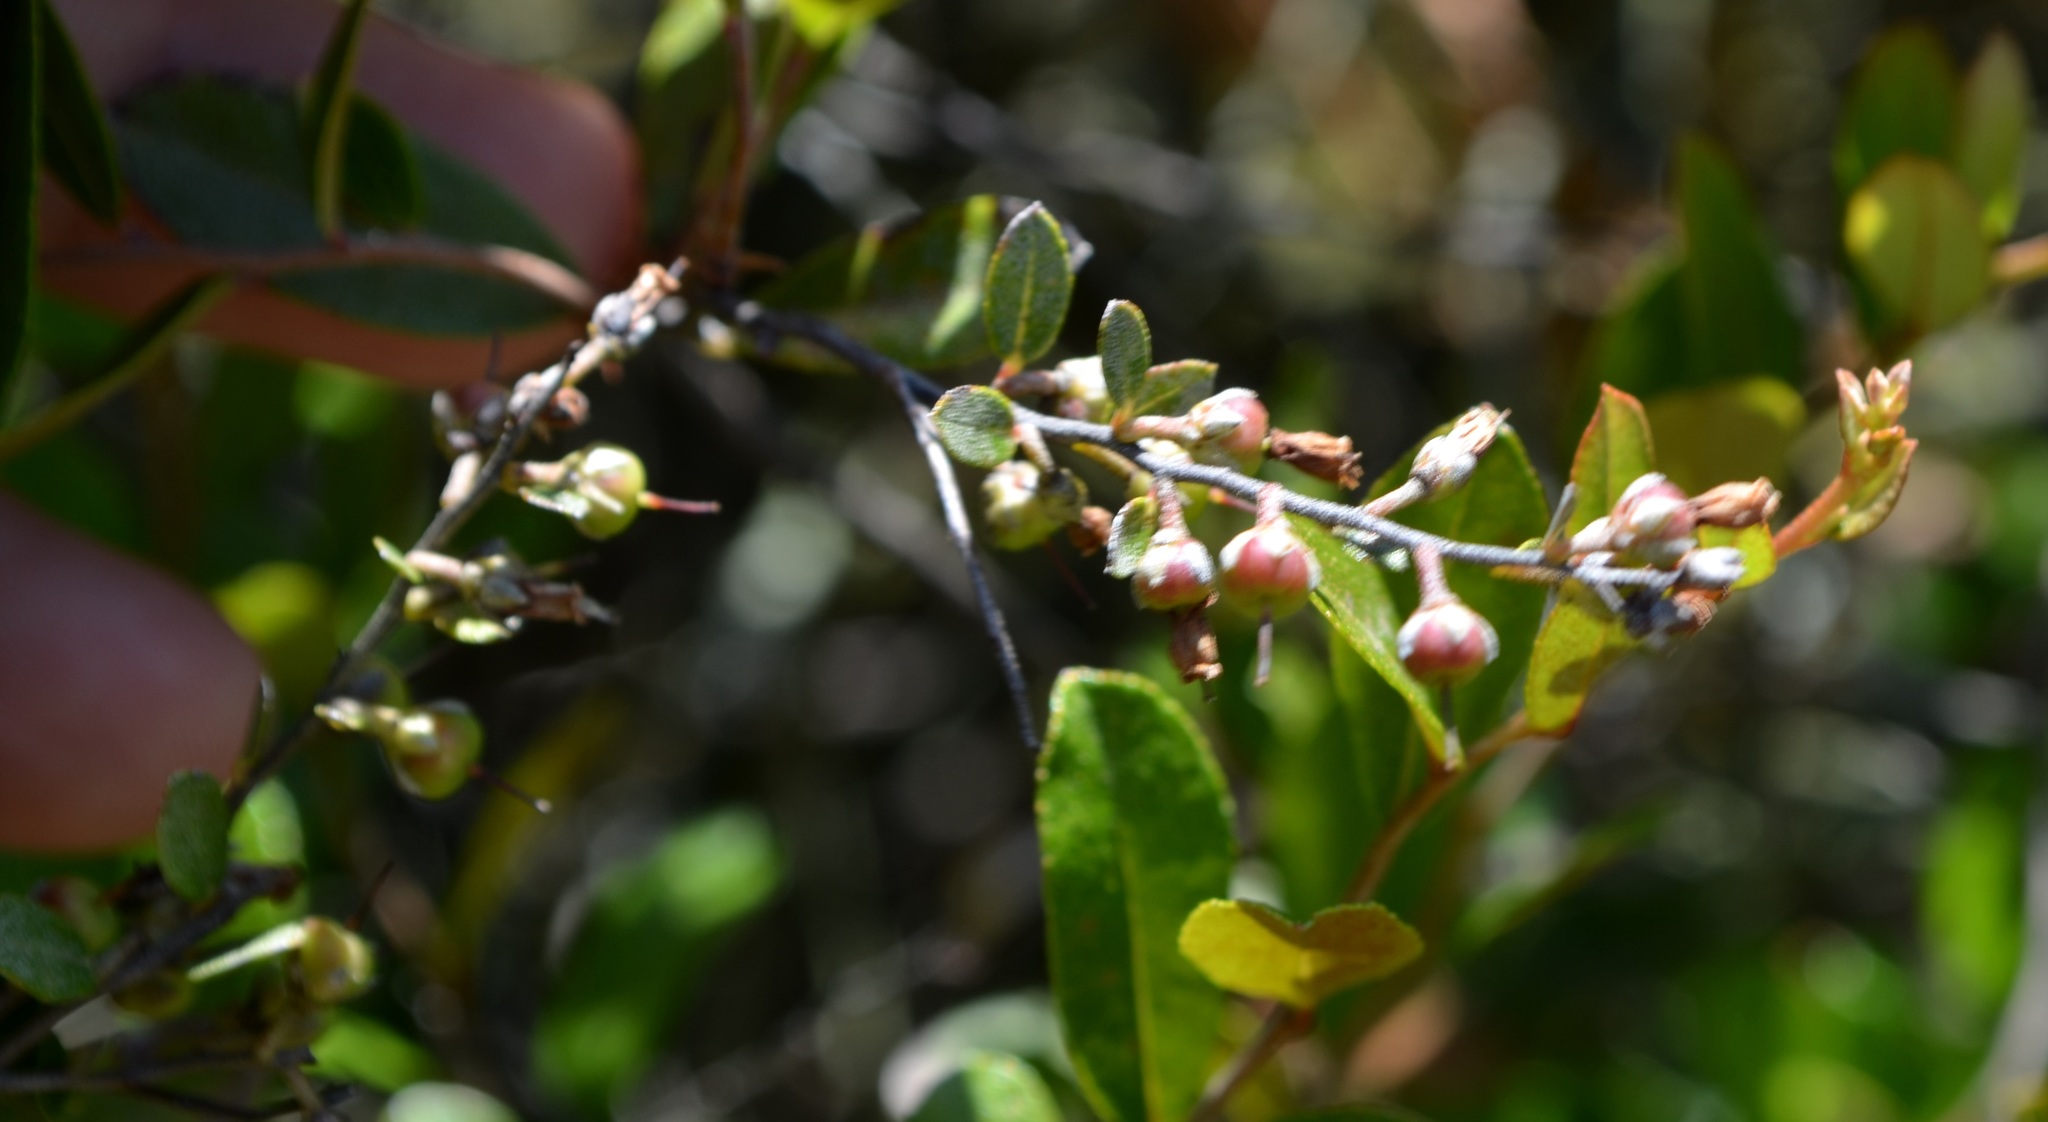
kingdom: Plantae
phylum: Tracheophyta
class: Magnoliopsida
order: Ericales
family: Ericaceae
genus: Chamaedaphne
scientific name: Chamaedaphne calyculata
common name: Leatherleaf
